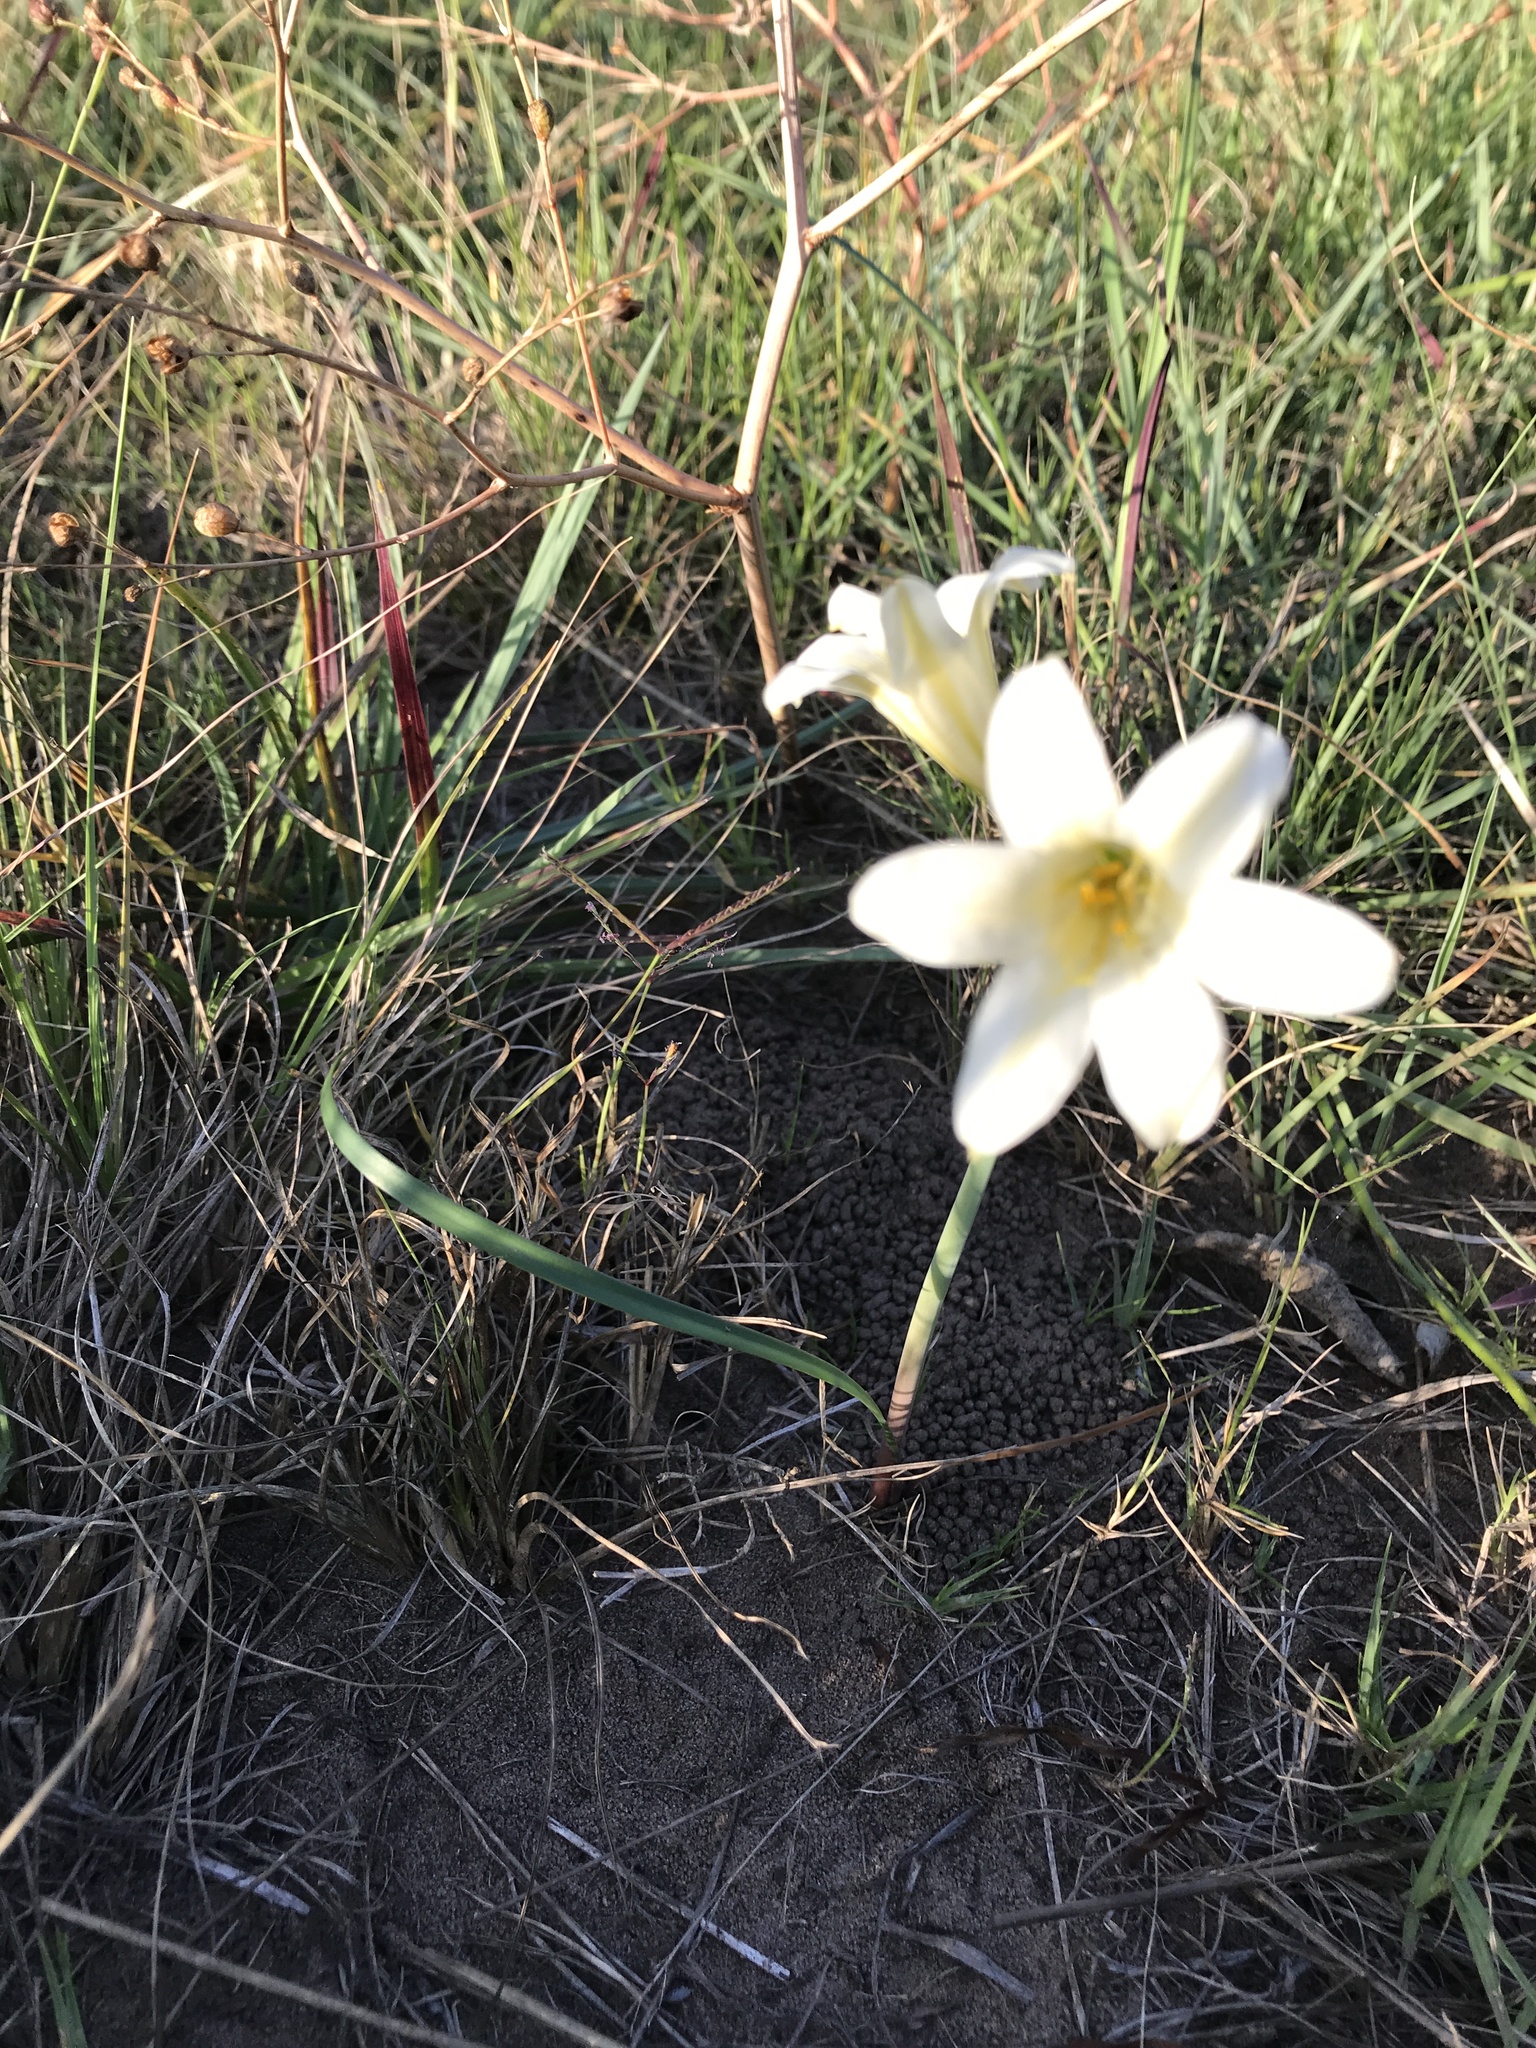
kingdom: Plantae
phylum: Tracheophyta
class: Liliopsida
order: Asparagales
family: Amaryllidaceae
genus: Cyrtanthus
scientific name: Cyrtanthus loddigesianus
